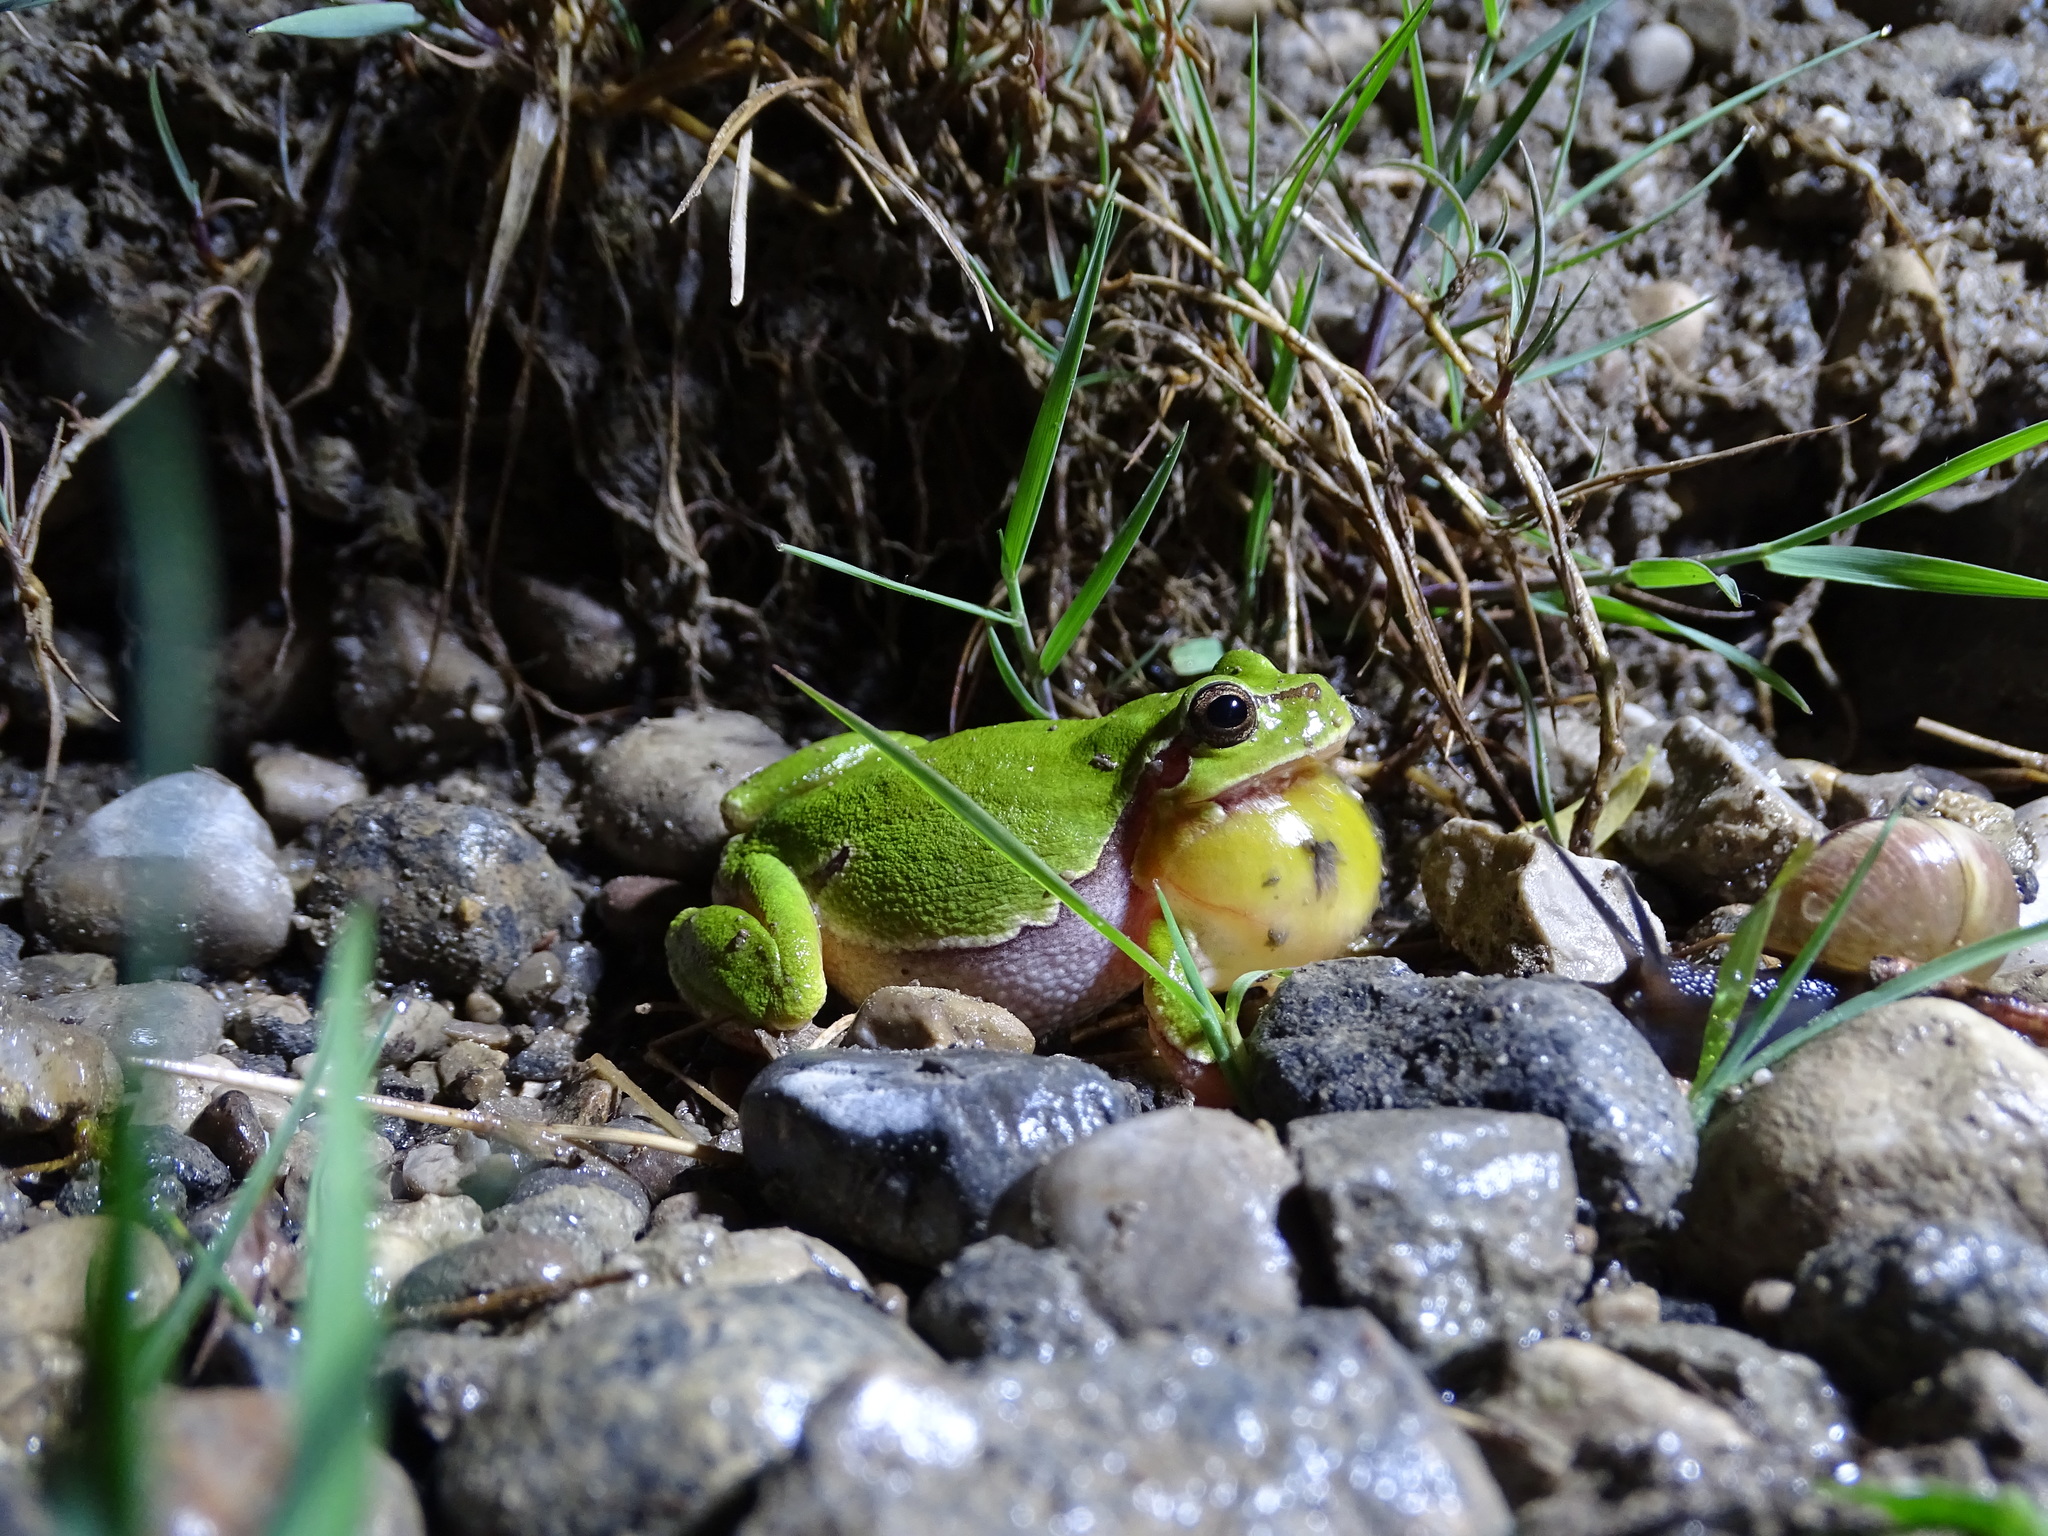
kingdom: Animalia
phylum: Chordata
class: Amphibia
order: Anura
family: Hylidae
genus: Hyla
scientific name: Hyla arborea
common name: Common tree frog
